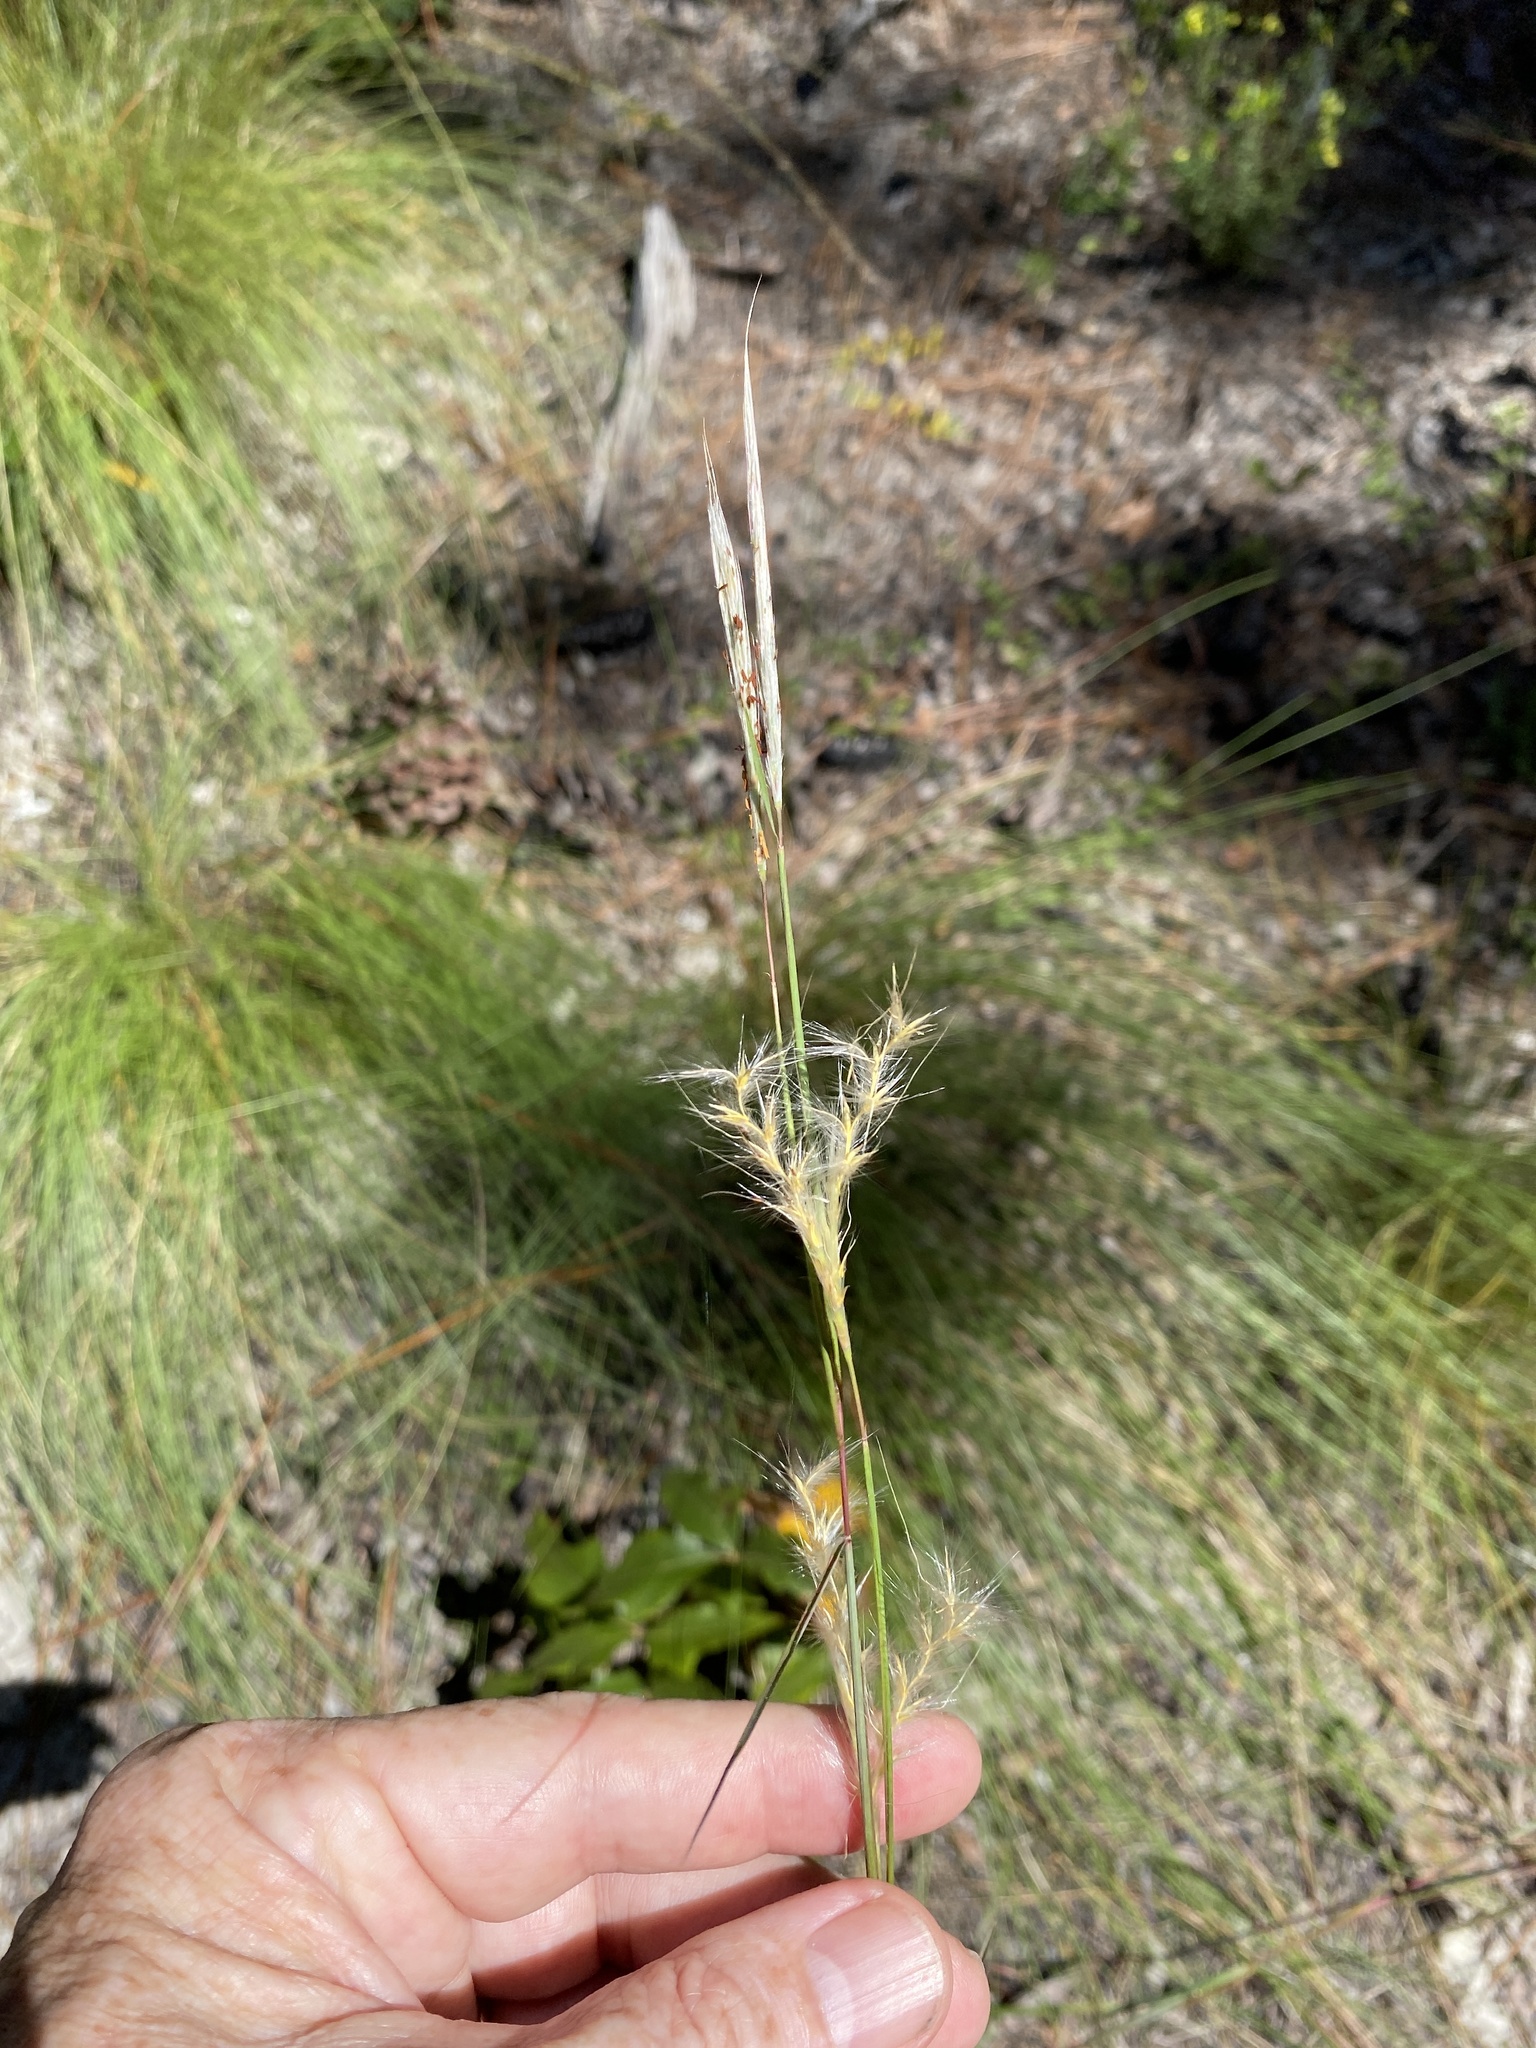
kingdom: Plantae
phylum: Tracheophyta
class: Liliopsida
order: Poales
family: Poaceae
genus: Andropogon
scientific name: Andropogon ternarius
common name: Split bluestem
